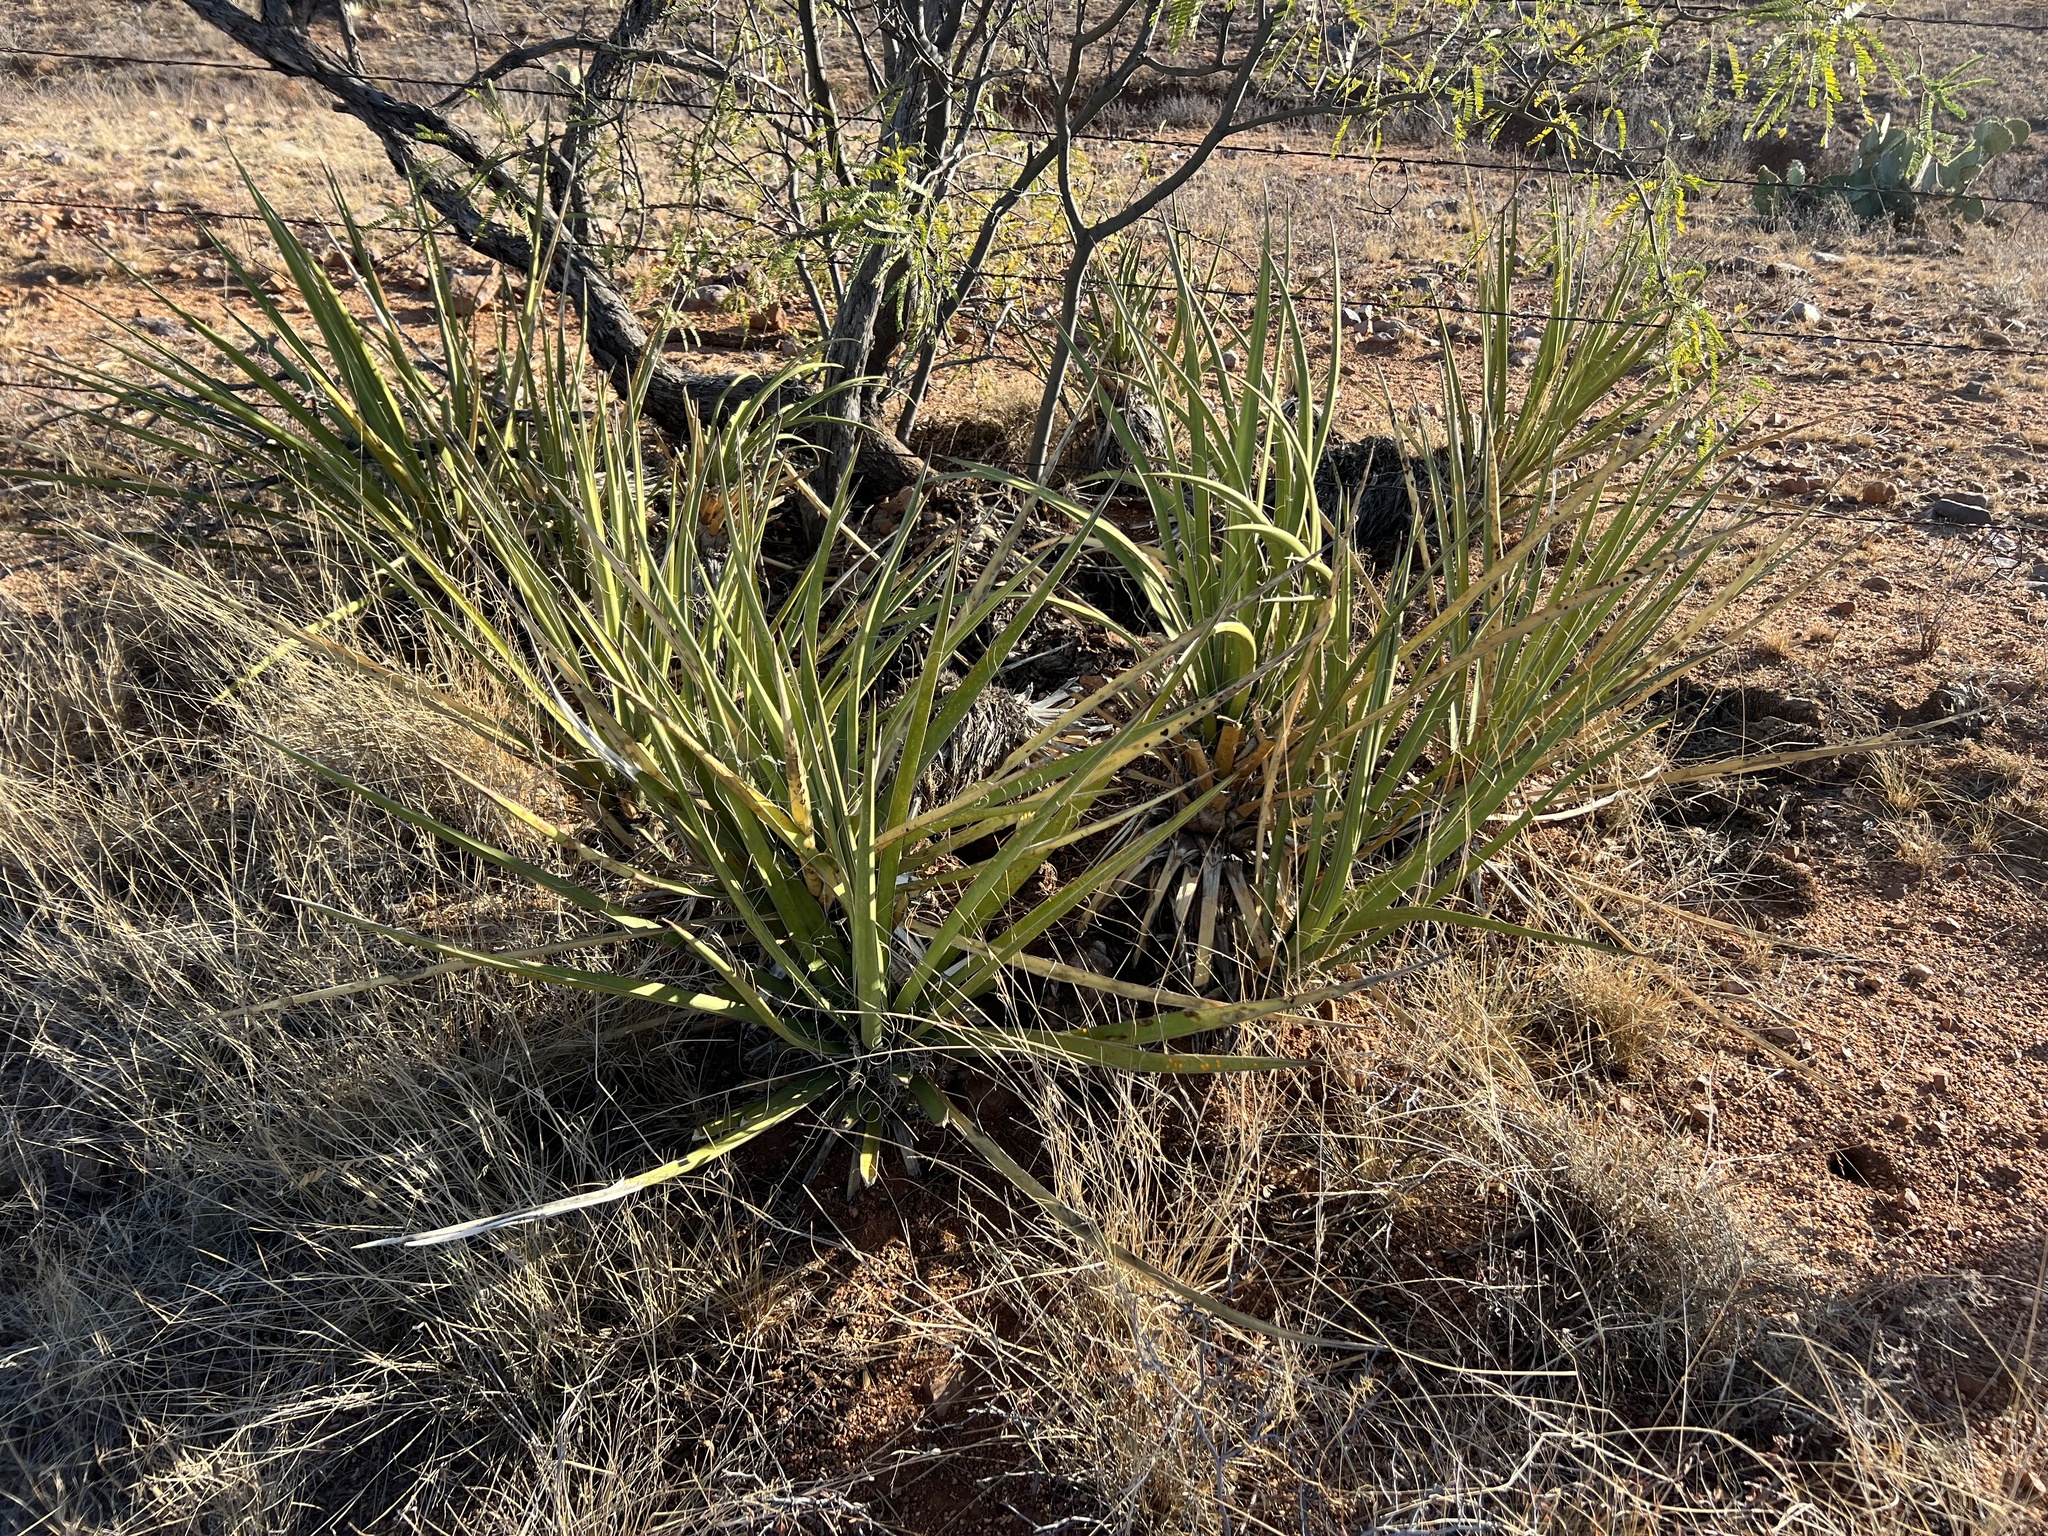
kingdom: Plantae
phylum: Tracheophyta
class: Liliopsida
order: Asparagales
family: Asparagaceae
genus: Yucca
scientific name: Yucca baccata
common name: Banana yucca
